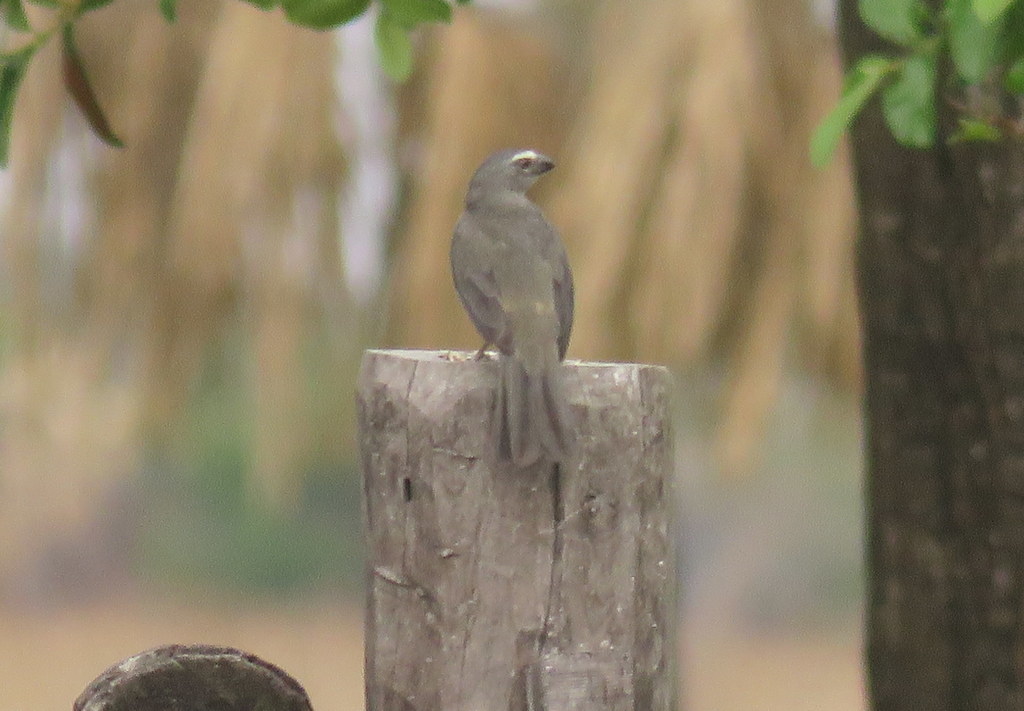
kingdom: Animalia
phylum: Chordata
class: Aves
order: Passeriformes
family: Thraupidae
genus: Saltator
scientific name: Saltator coerulescens
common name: Grayish saltator
